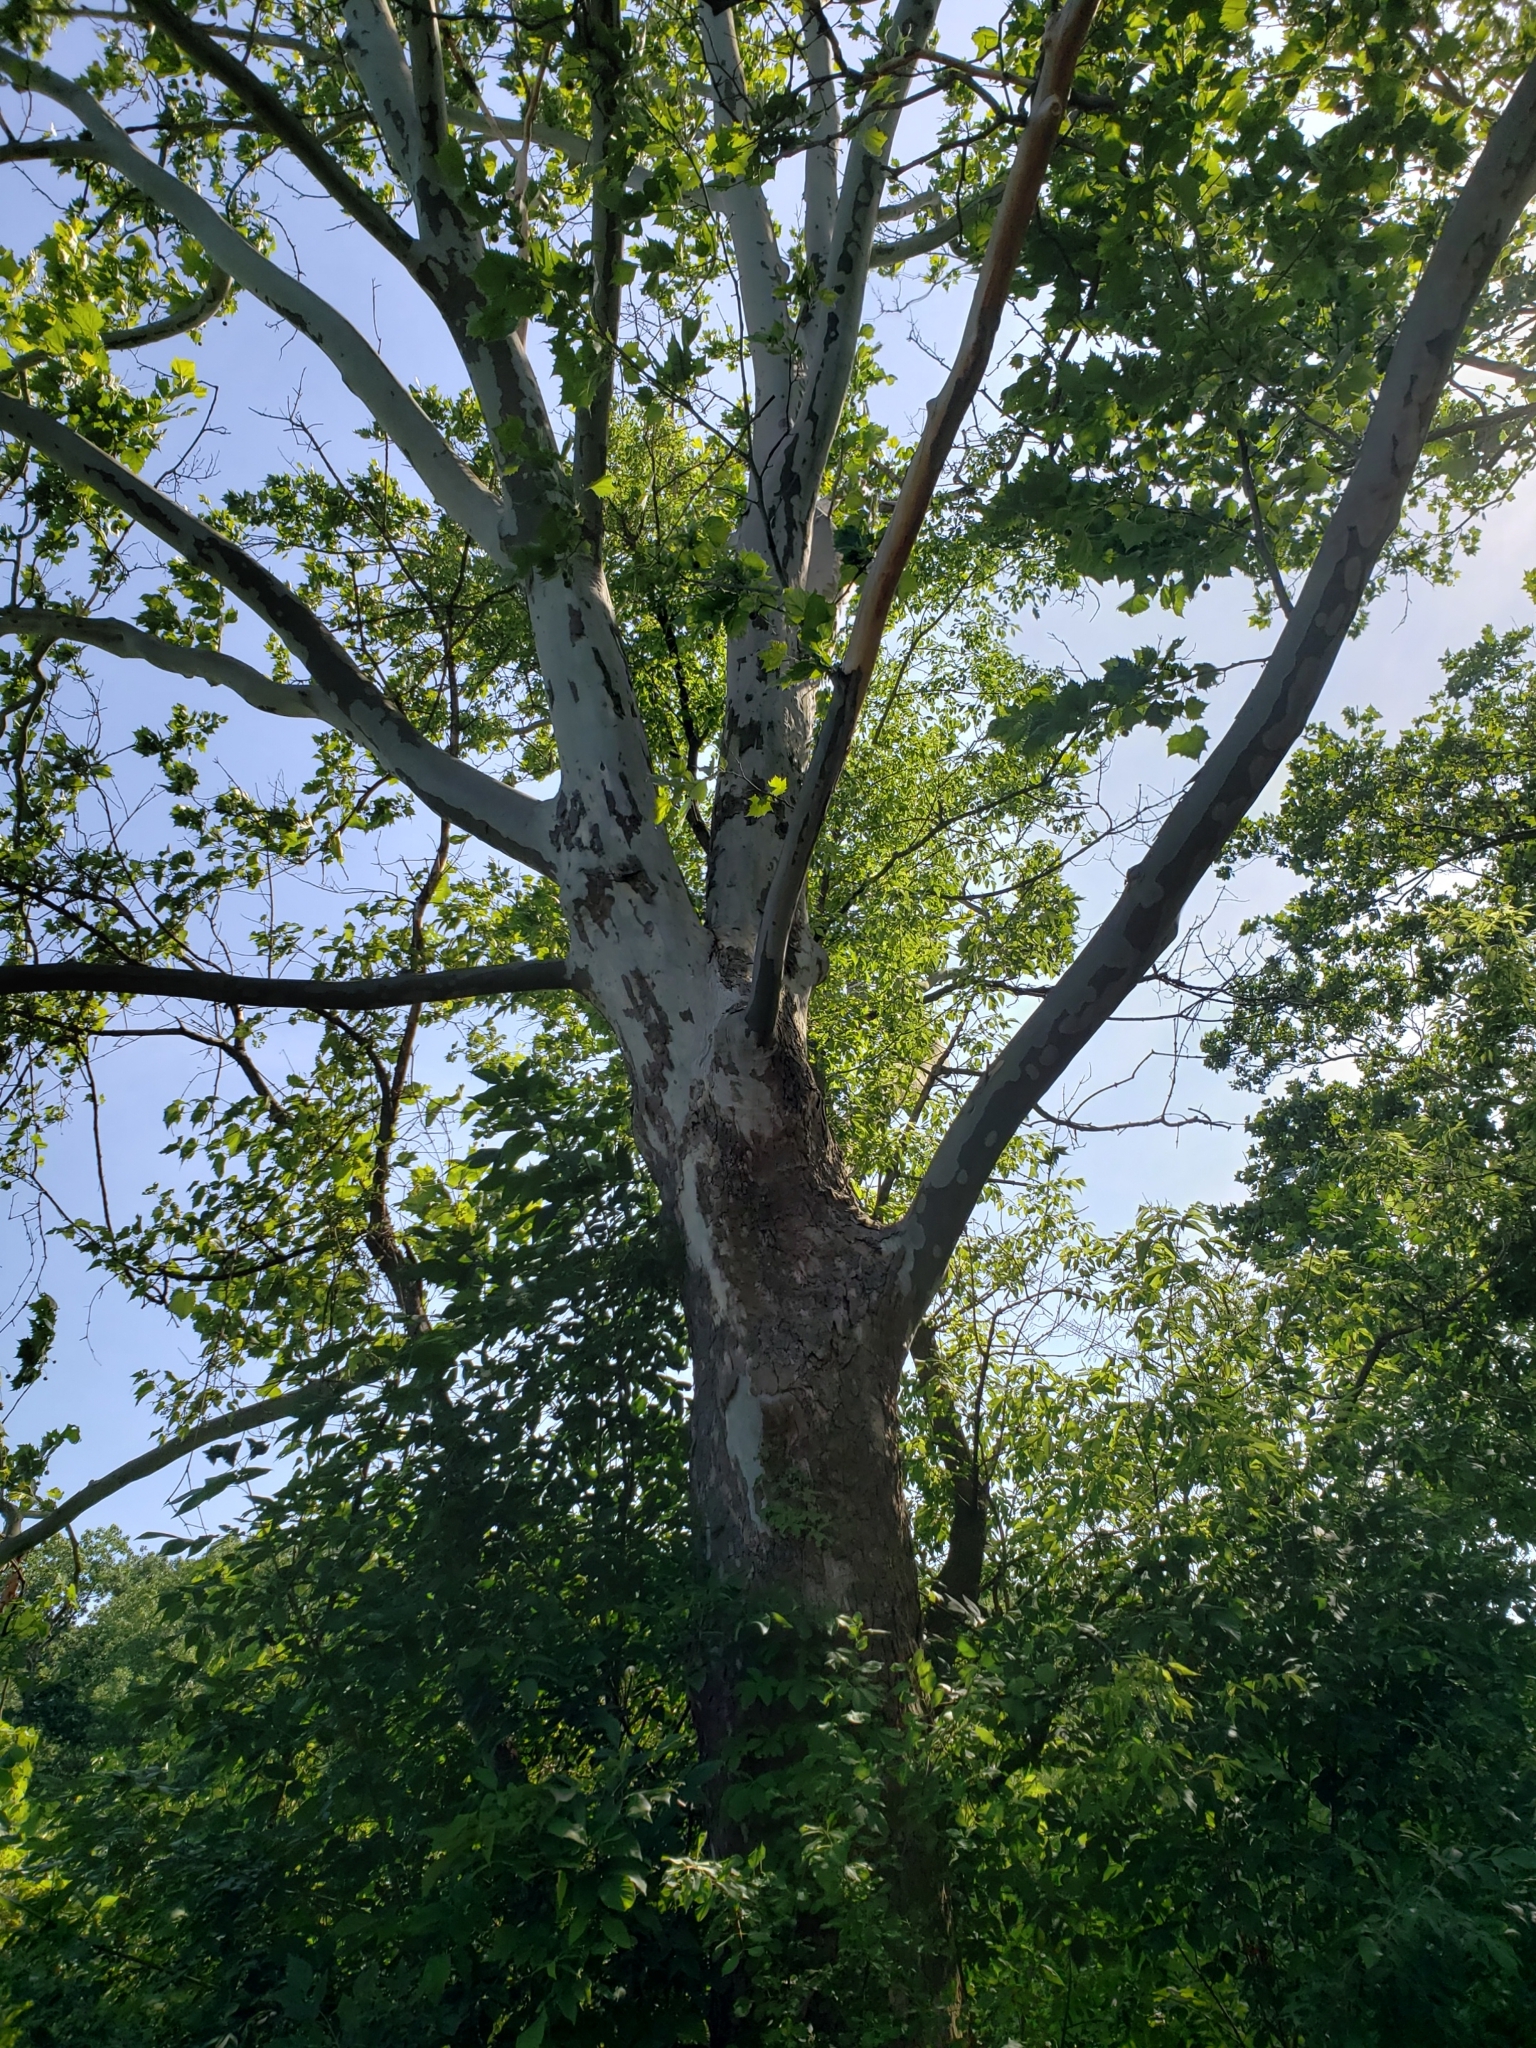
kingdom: Plantae
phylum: Tracheophyta
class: Magnoliopsida
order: Proteales
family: Platanaceae
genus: Platanus
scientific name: Platanus occidentalis
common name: American sycamore
